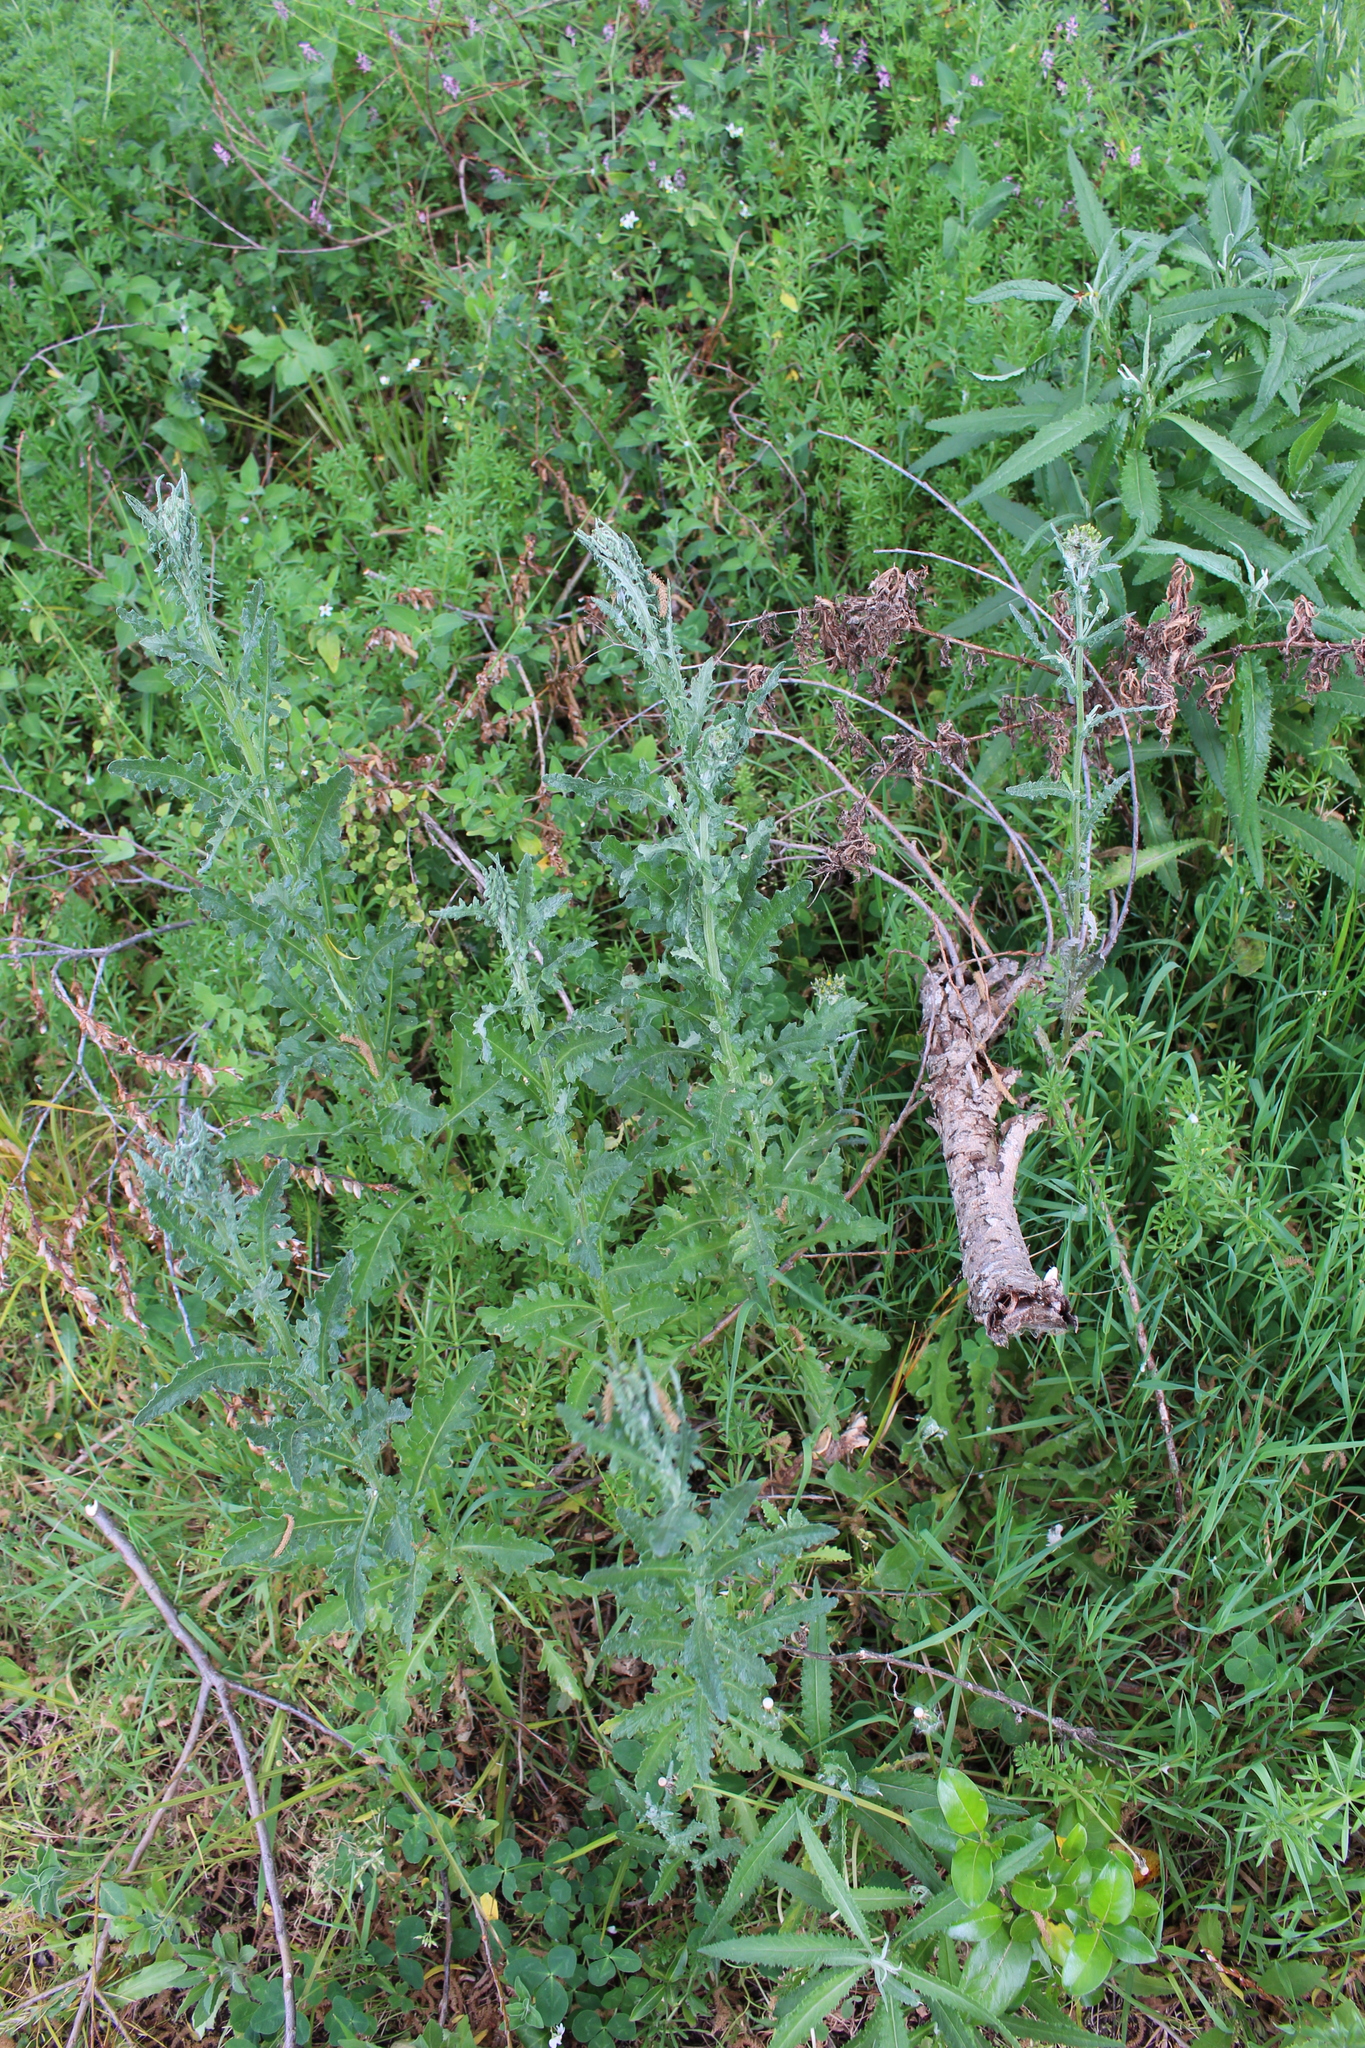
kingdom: Plantae
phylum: Tracheophyta
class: Magnoliopsida
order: Asterales
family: Asteraceae
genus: Senecio
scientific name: Senecio glomeratus
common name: Cutleaf burnweed
